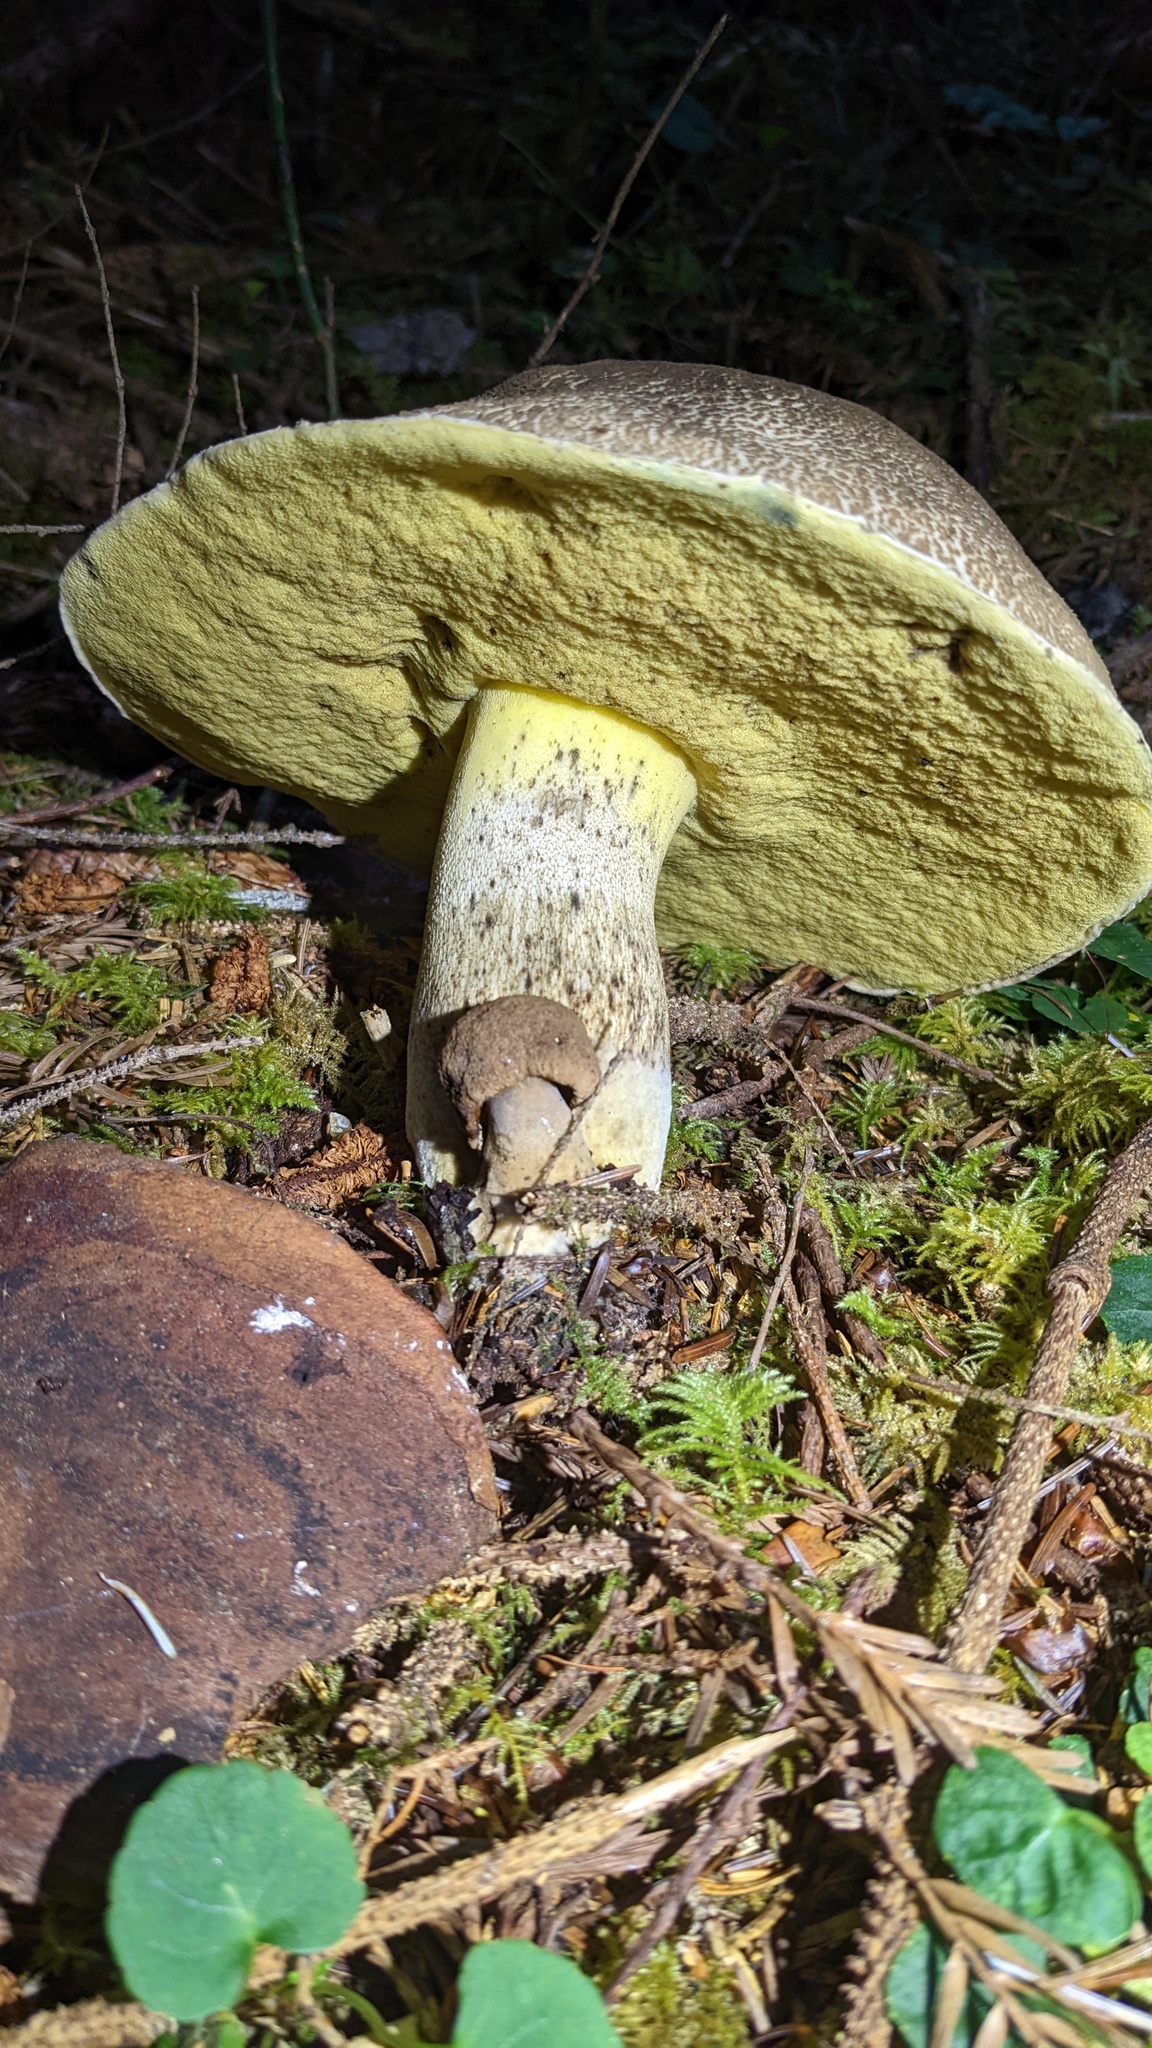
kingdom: Fungi
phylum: Basidiomycota
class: Agaricomycetes
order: Boletales
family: Boletaceae
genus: Caloboletus
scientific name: Caloboletus conifericola
